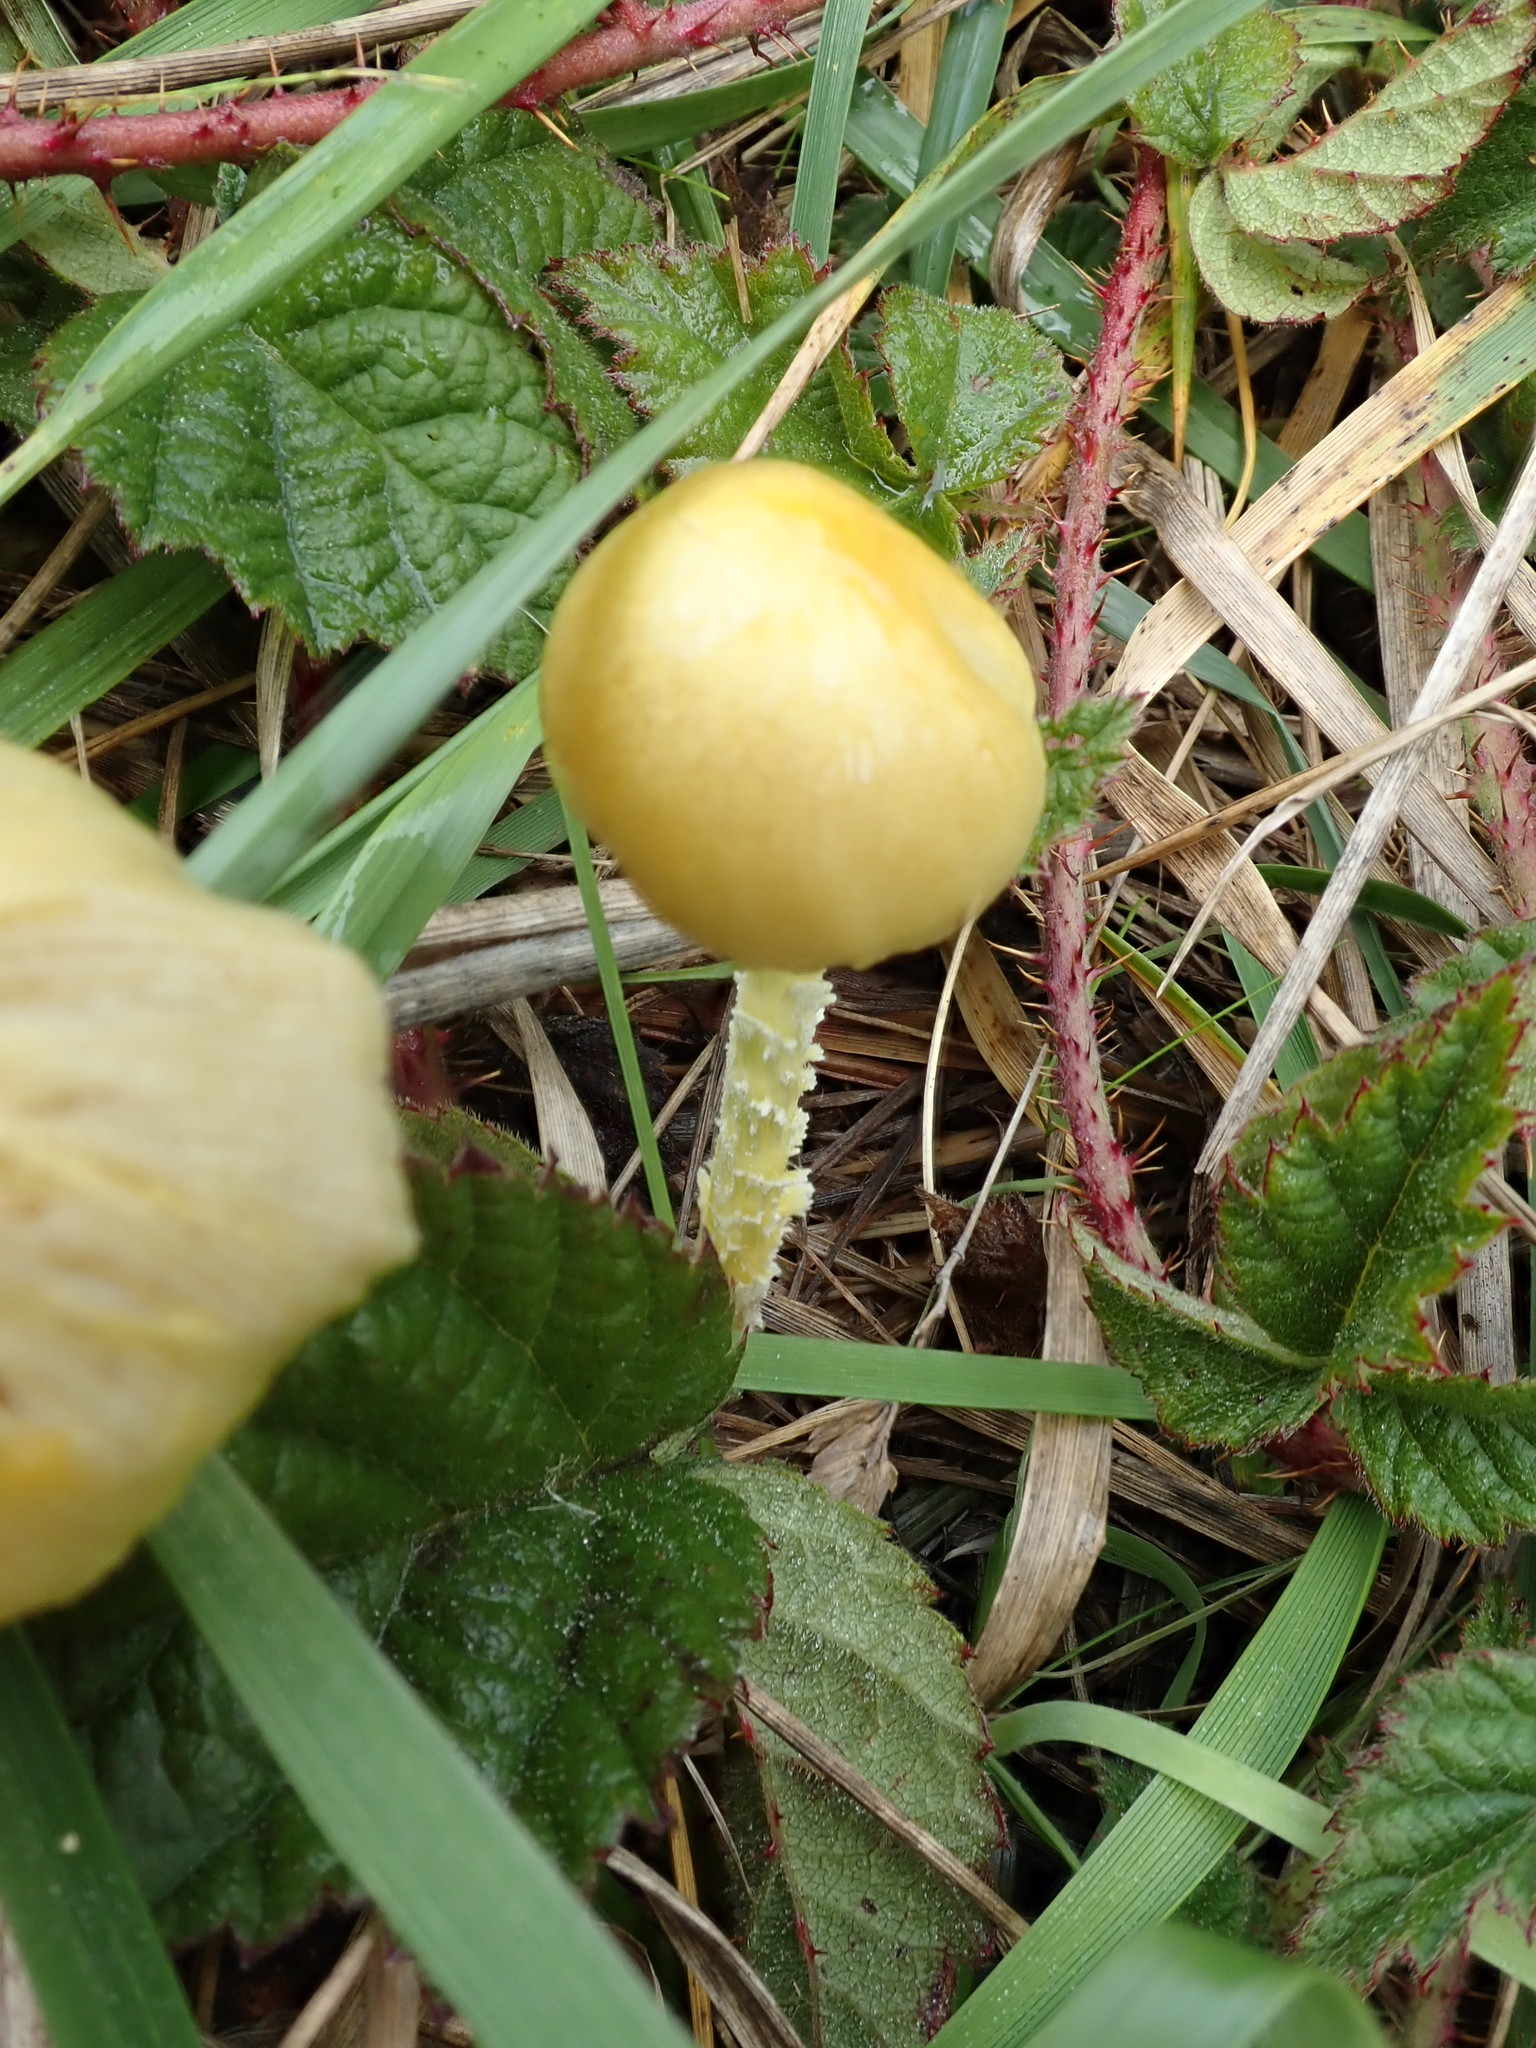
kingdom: Fungi
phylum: Basidiomycota
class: Agaricomycetes
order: Agaricales
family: Bolbitiaceae
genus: Bolbitius
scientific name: Bolbitius titubans
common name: Yellow fieldcap
